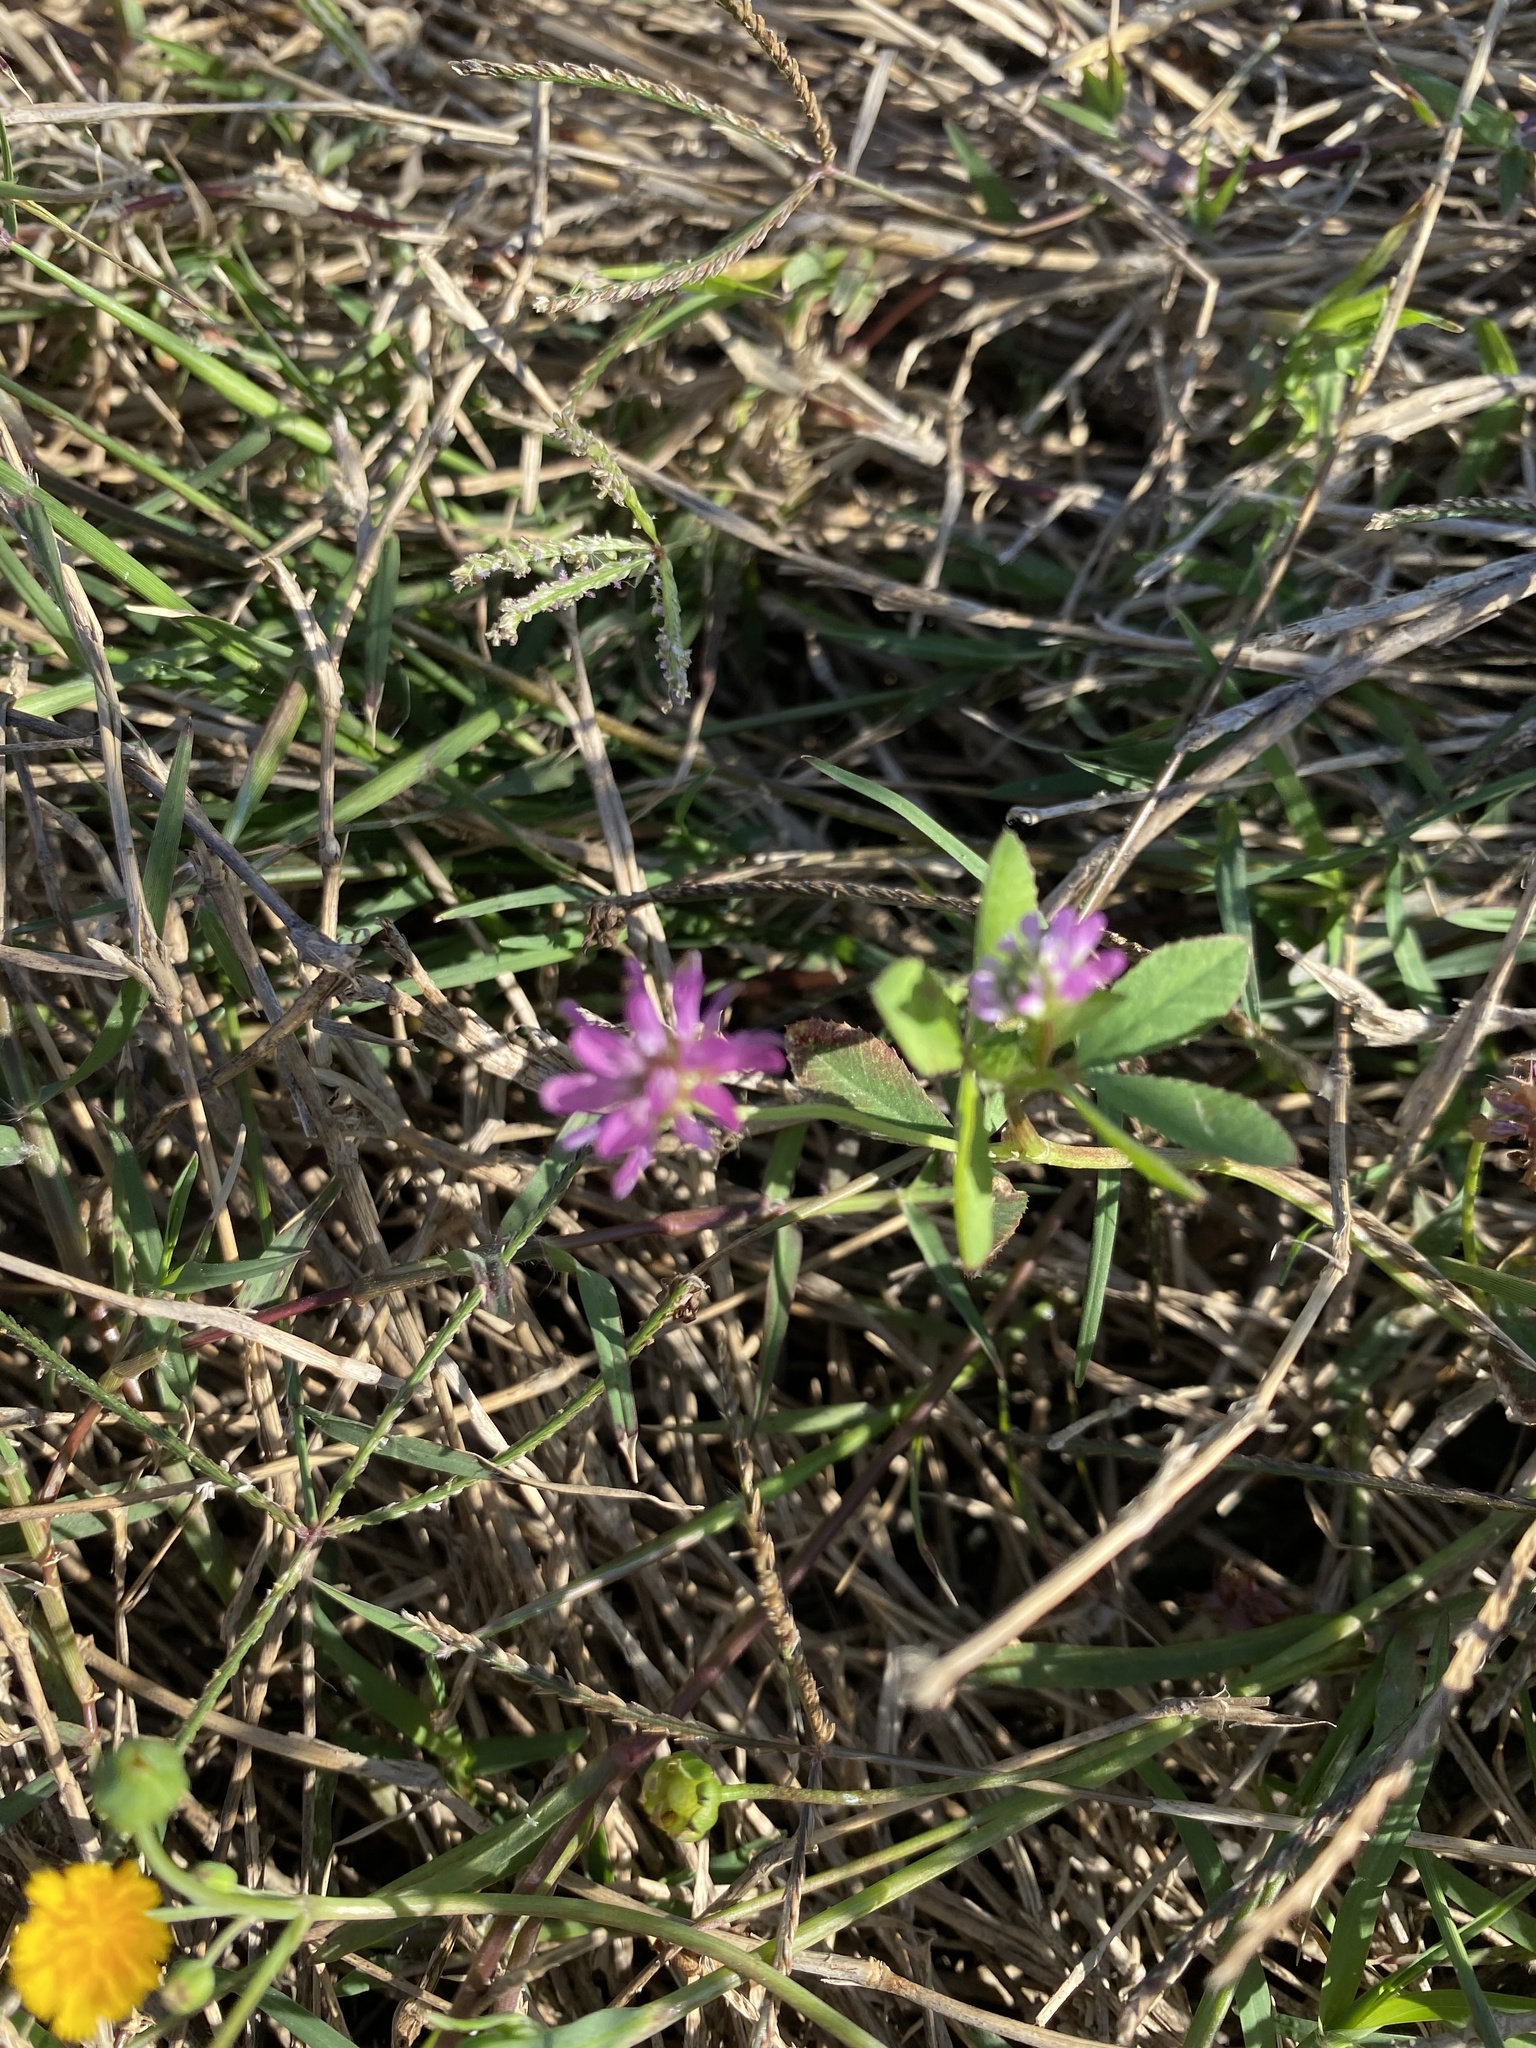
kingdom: Plantae
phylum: Tracheophyta
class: Magnoliopsida
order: Fabales
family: Fabaceae
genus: Trifolium
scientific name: Trifolium resupinatum
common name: Reversed clover
